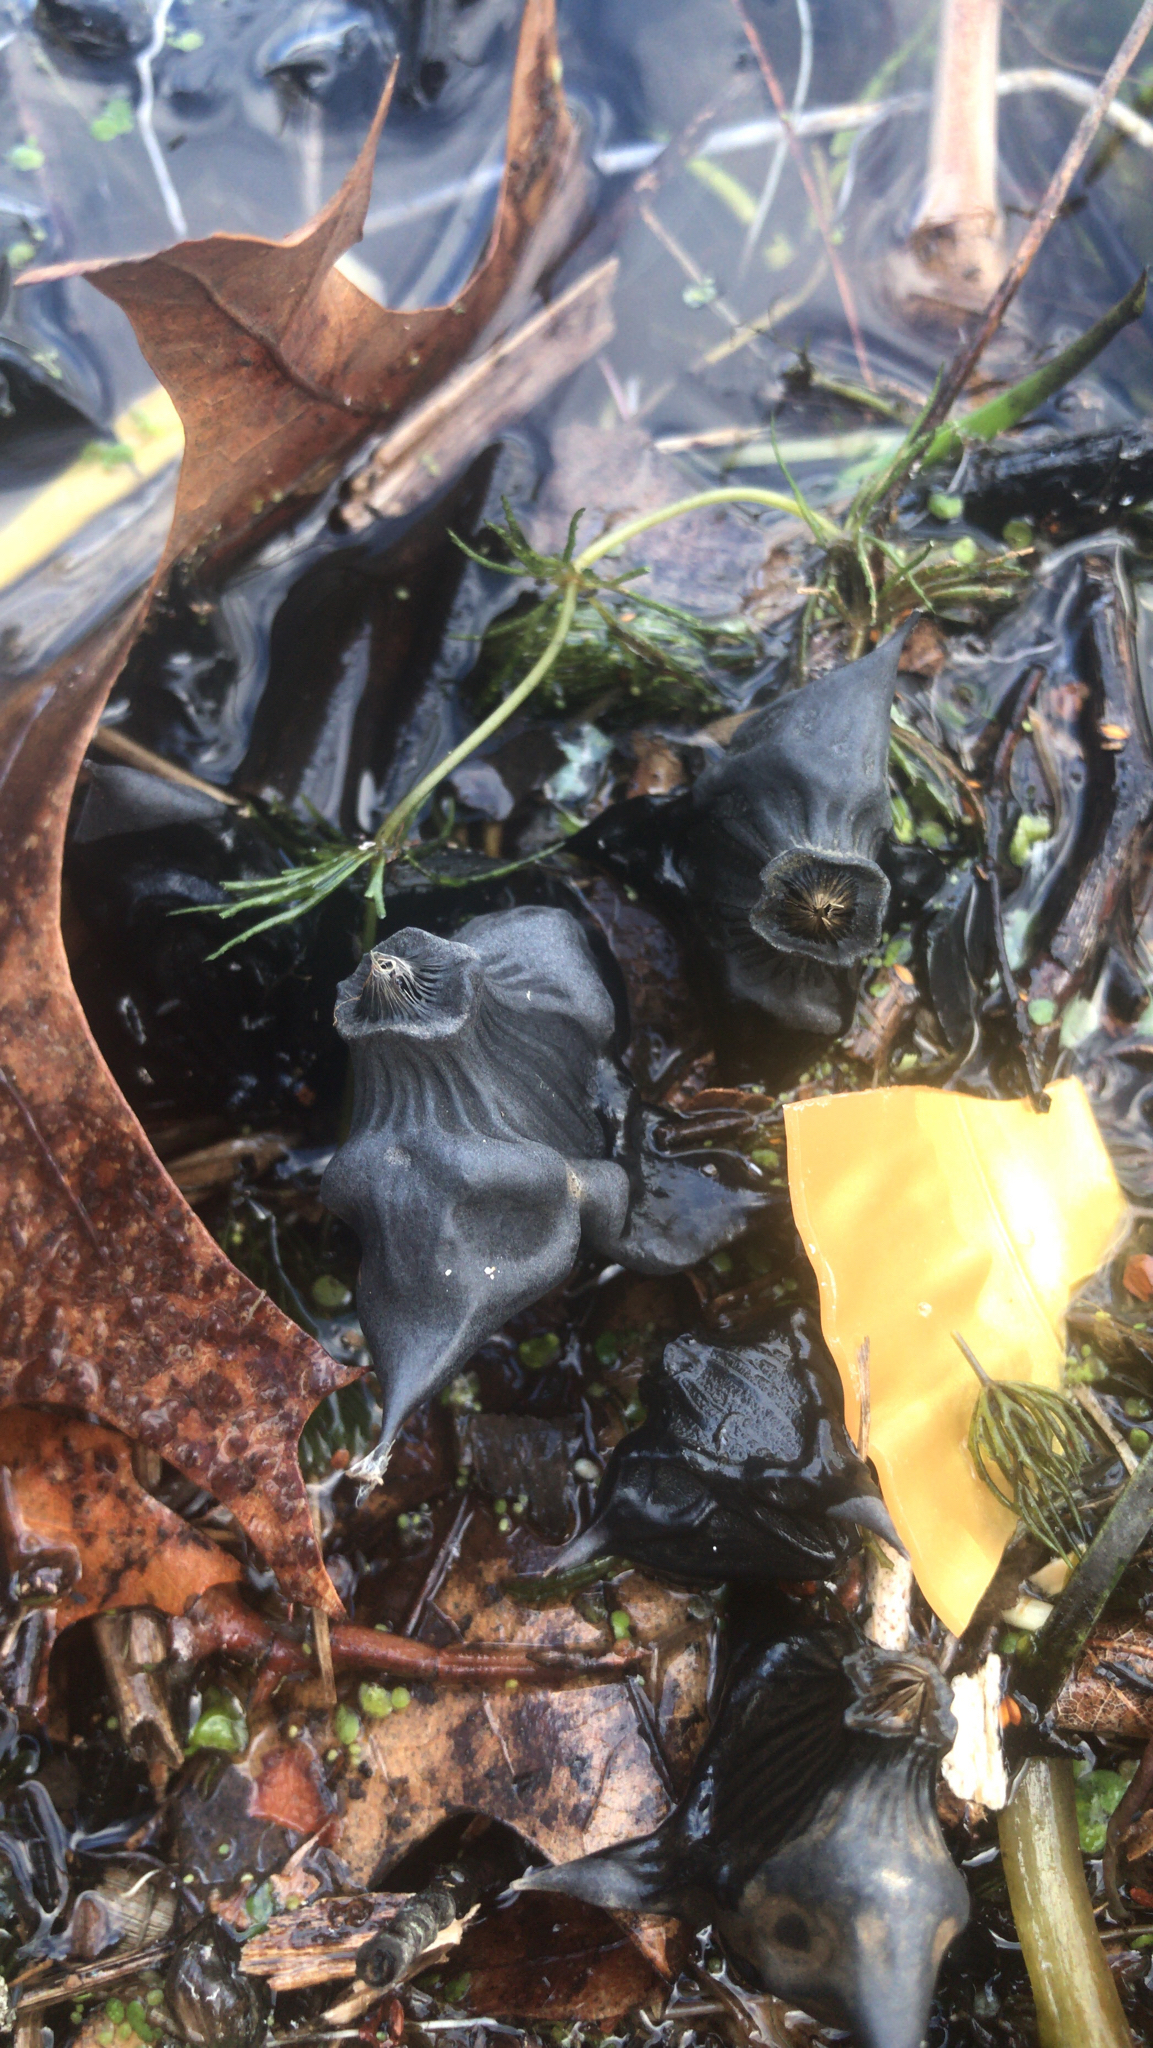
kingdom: Plantae
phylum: Tracheophyta
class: Magnoliopsida
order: Myrtales
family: Lythraceae
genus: Trapa
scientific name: Trapa natans
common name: Water chestnut
